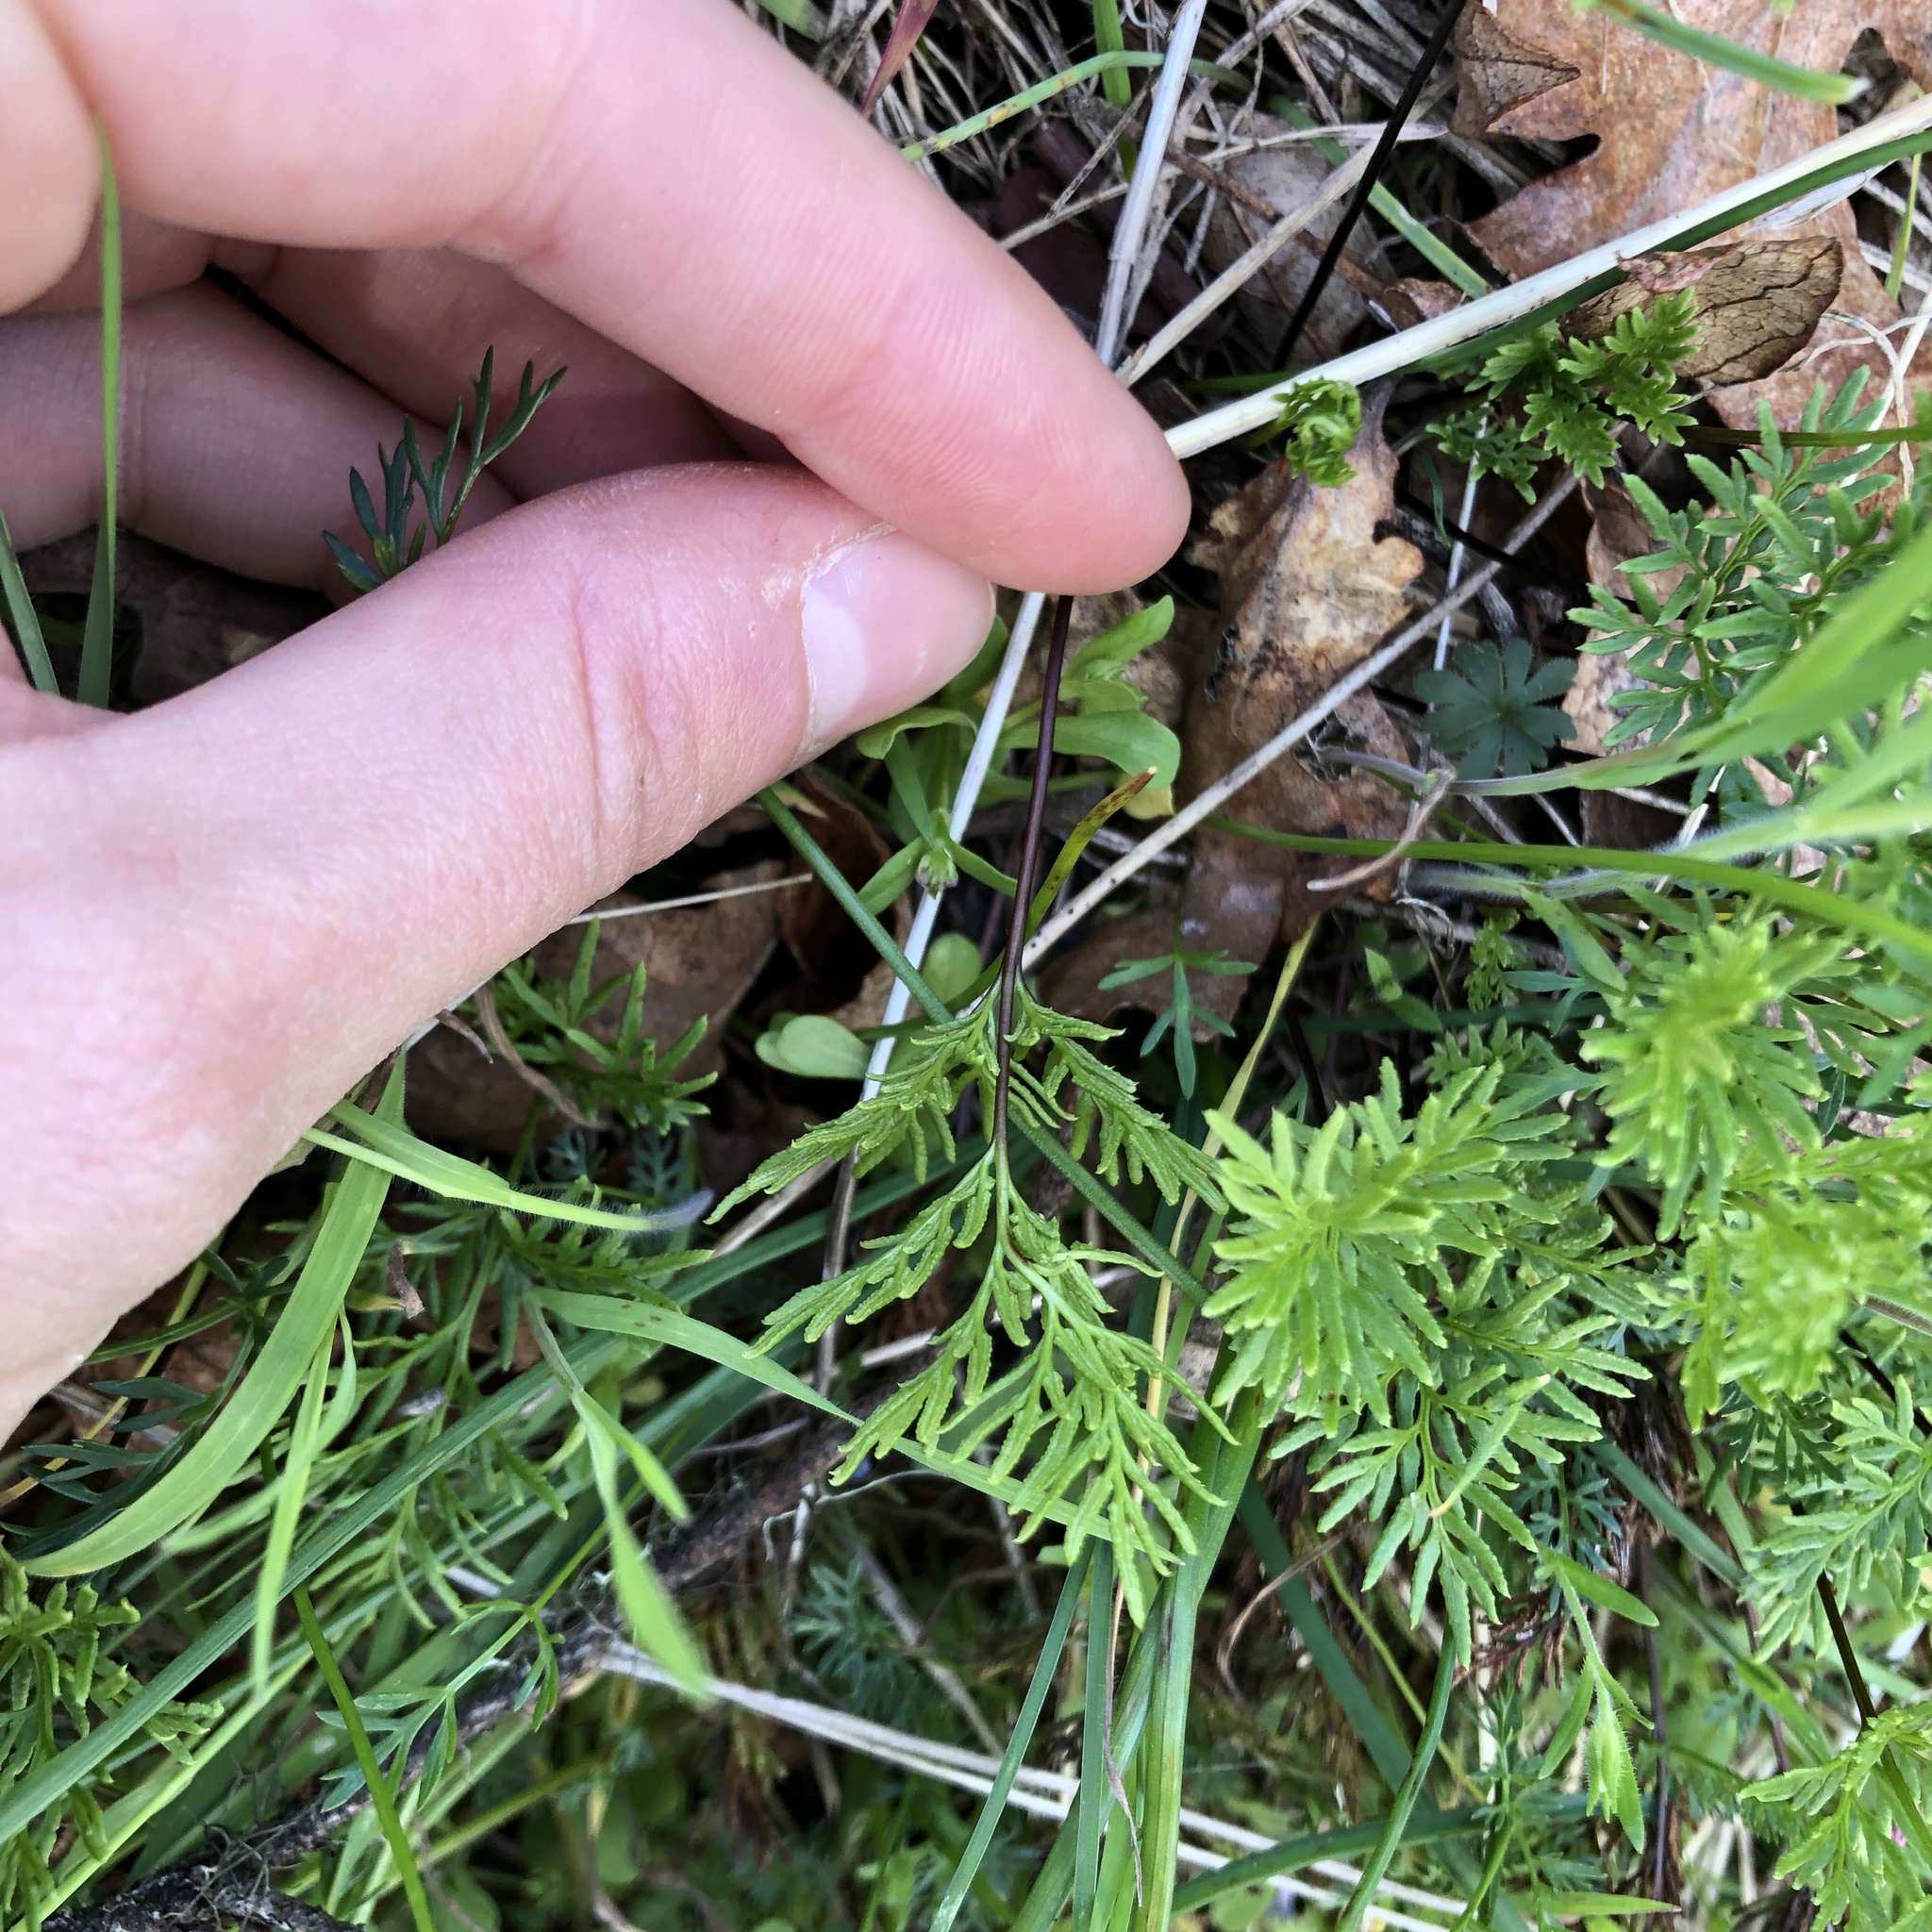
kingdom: Plantae
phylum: Tracheophyta
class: Polypodiopsida
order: Polypodiales
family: Pteridaceae
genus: Aspidotis
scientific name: Aspidotis densa
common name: Indian's dream
